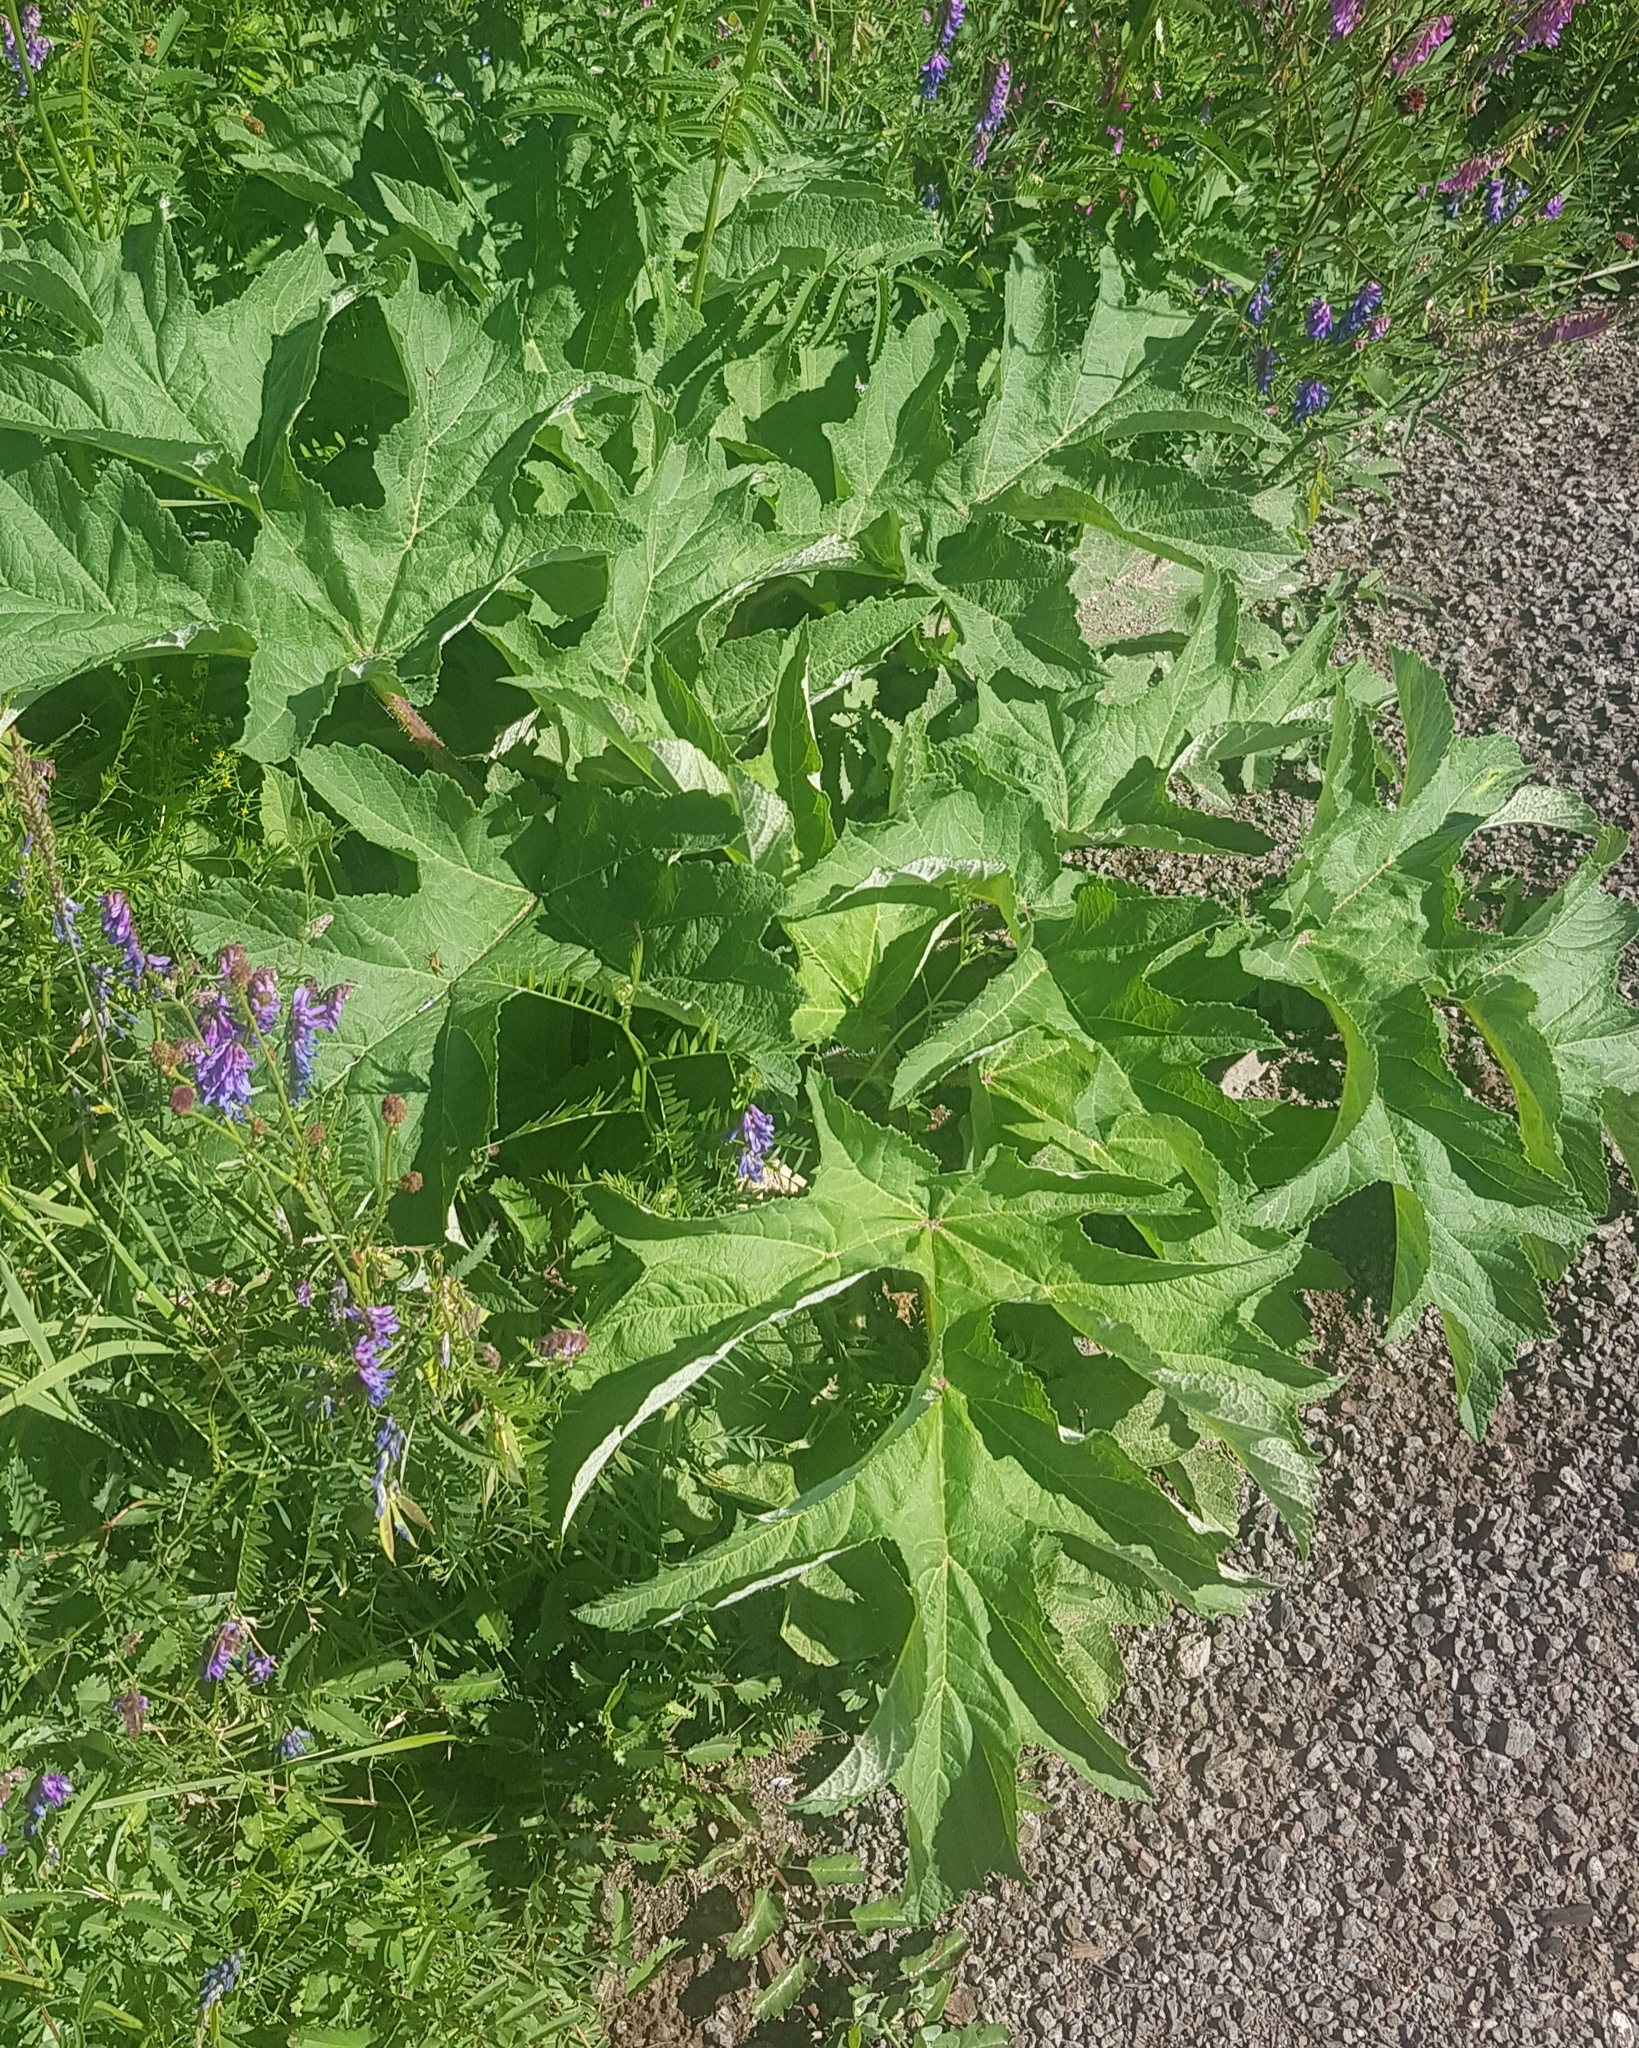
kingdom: Plantae
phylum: Tracheophyta
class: Magnoliopsida
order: Apiales
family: Apiaceae
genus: Heracleum
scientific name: Heracleum dissectum
